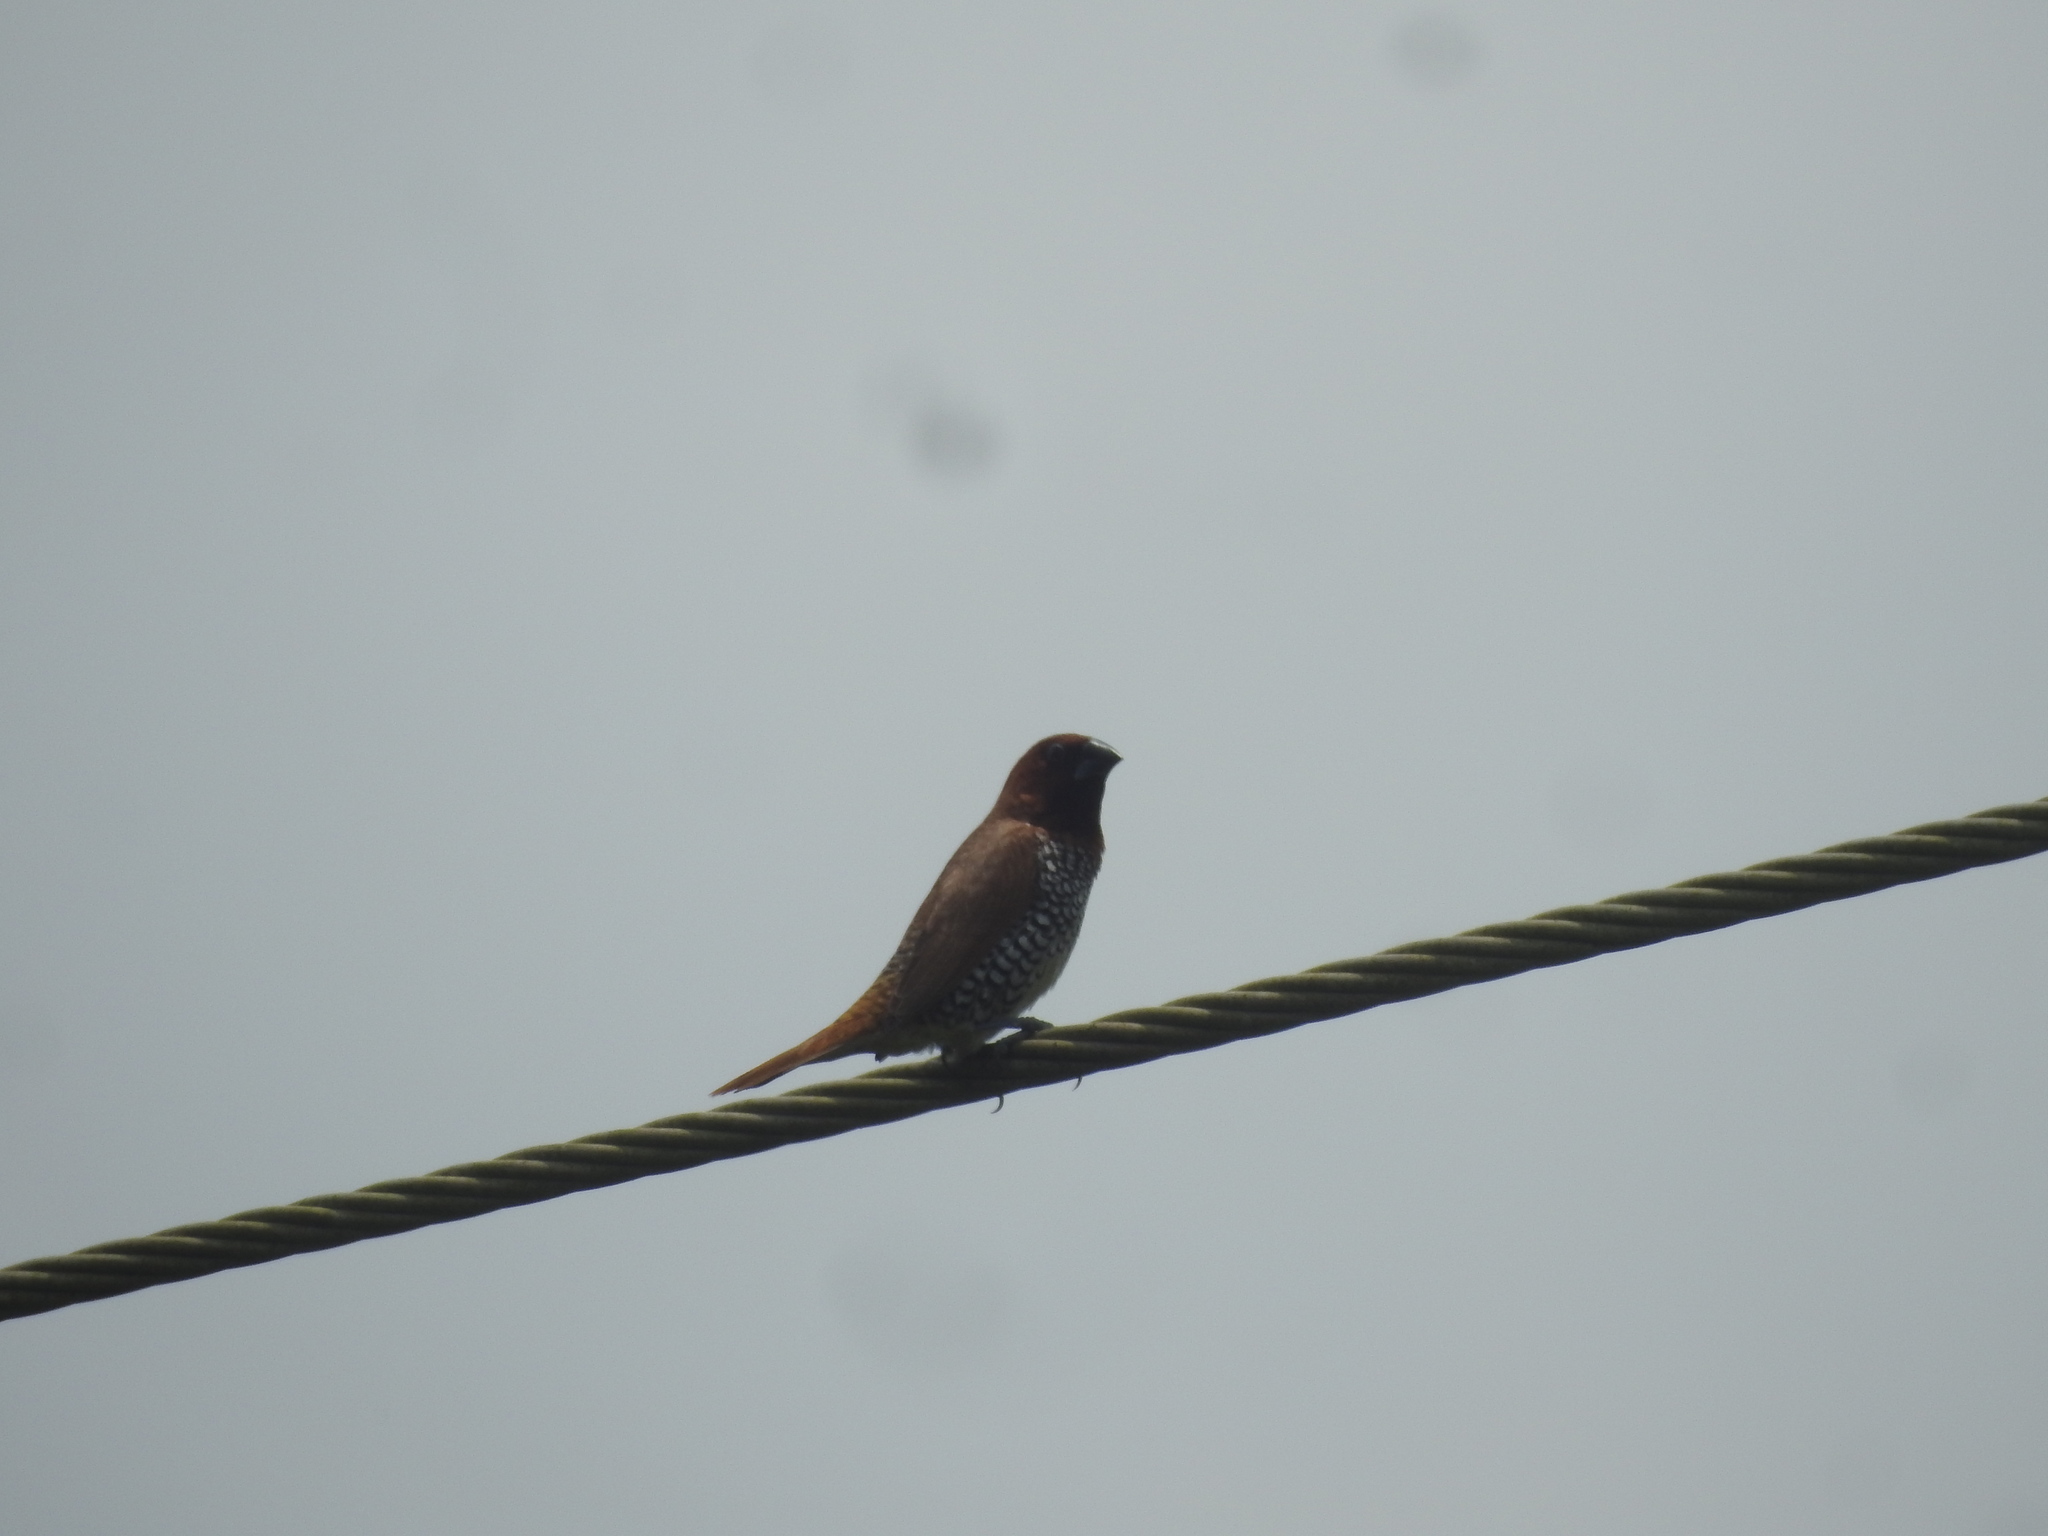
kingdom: Animalia
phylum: Chordata
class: Aves
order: Passeriformes
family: Estrildidae
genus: Lonchura
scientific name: Lonchura punctulata
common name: Scaly-breasted munia
